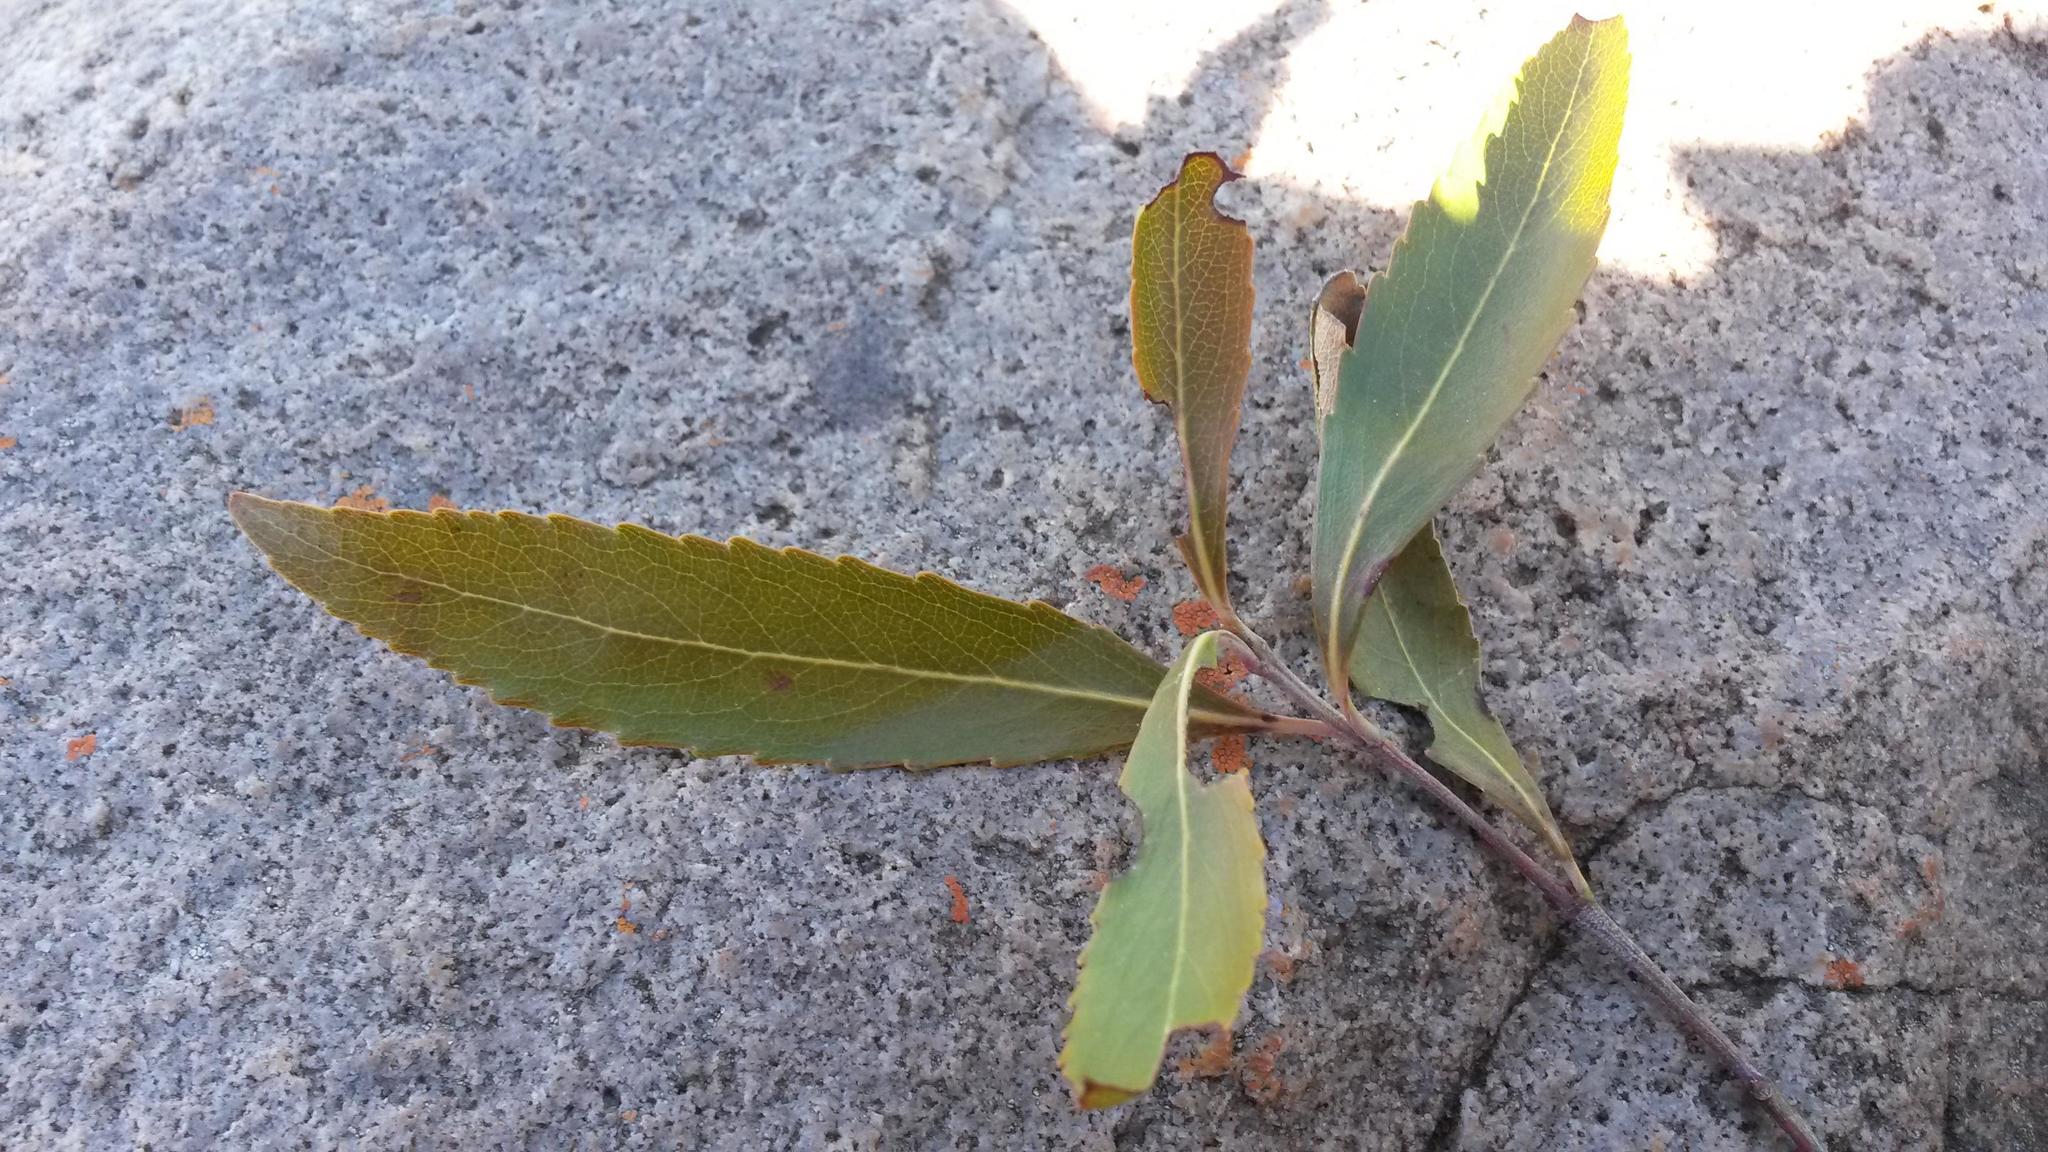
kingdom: Plantae
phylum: Tracheophyta
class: Magnoliopsida
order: Celastrales
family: Celastraceae
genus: Catha
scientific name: Catha edulis
